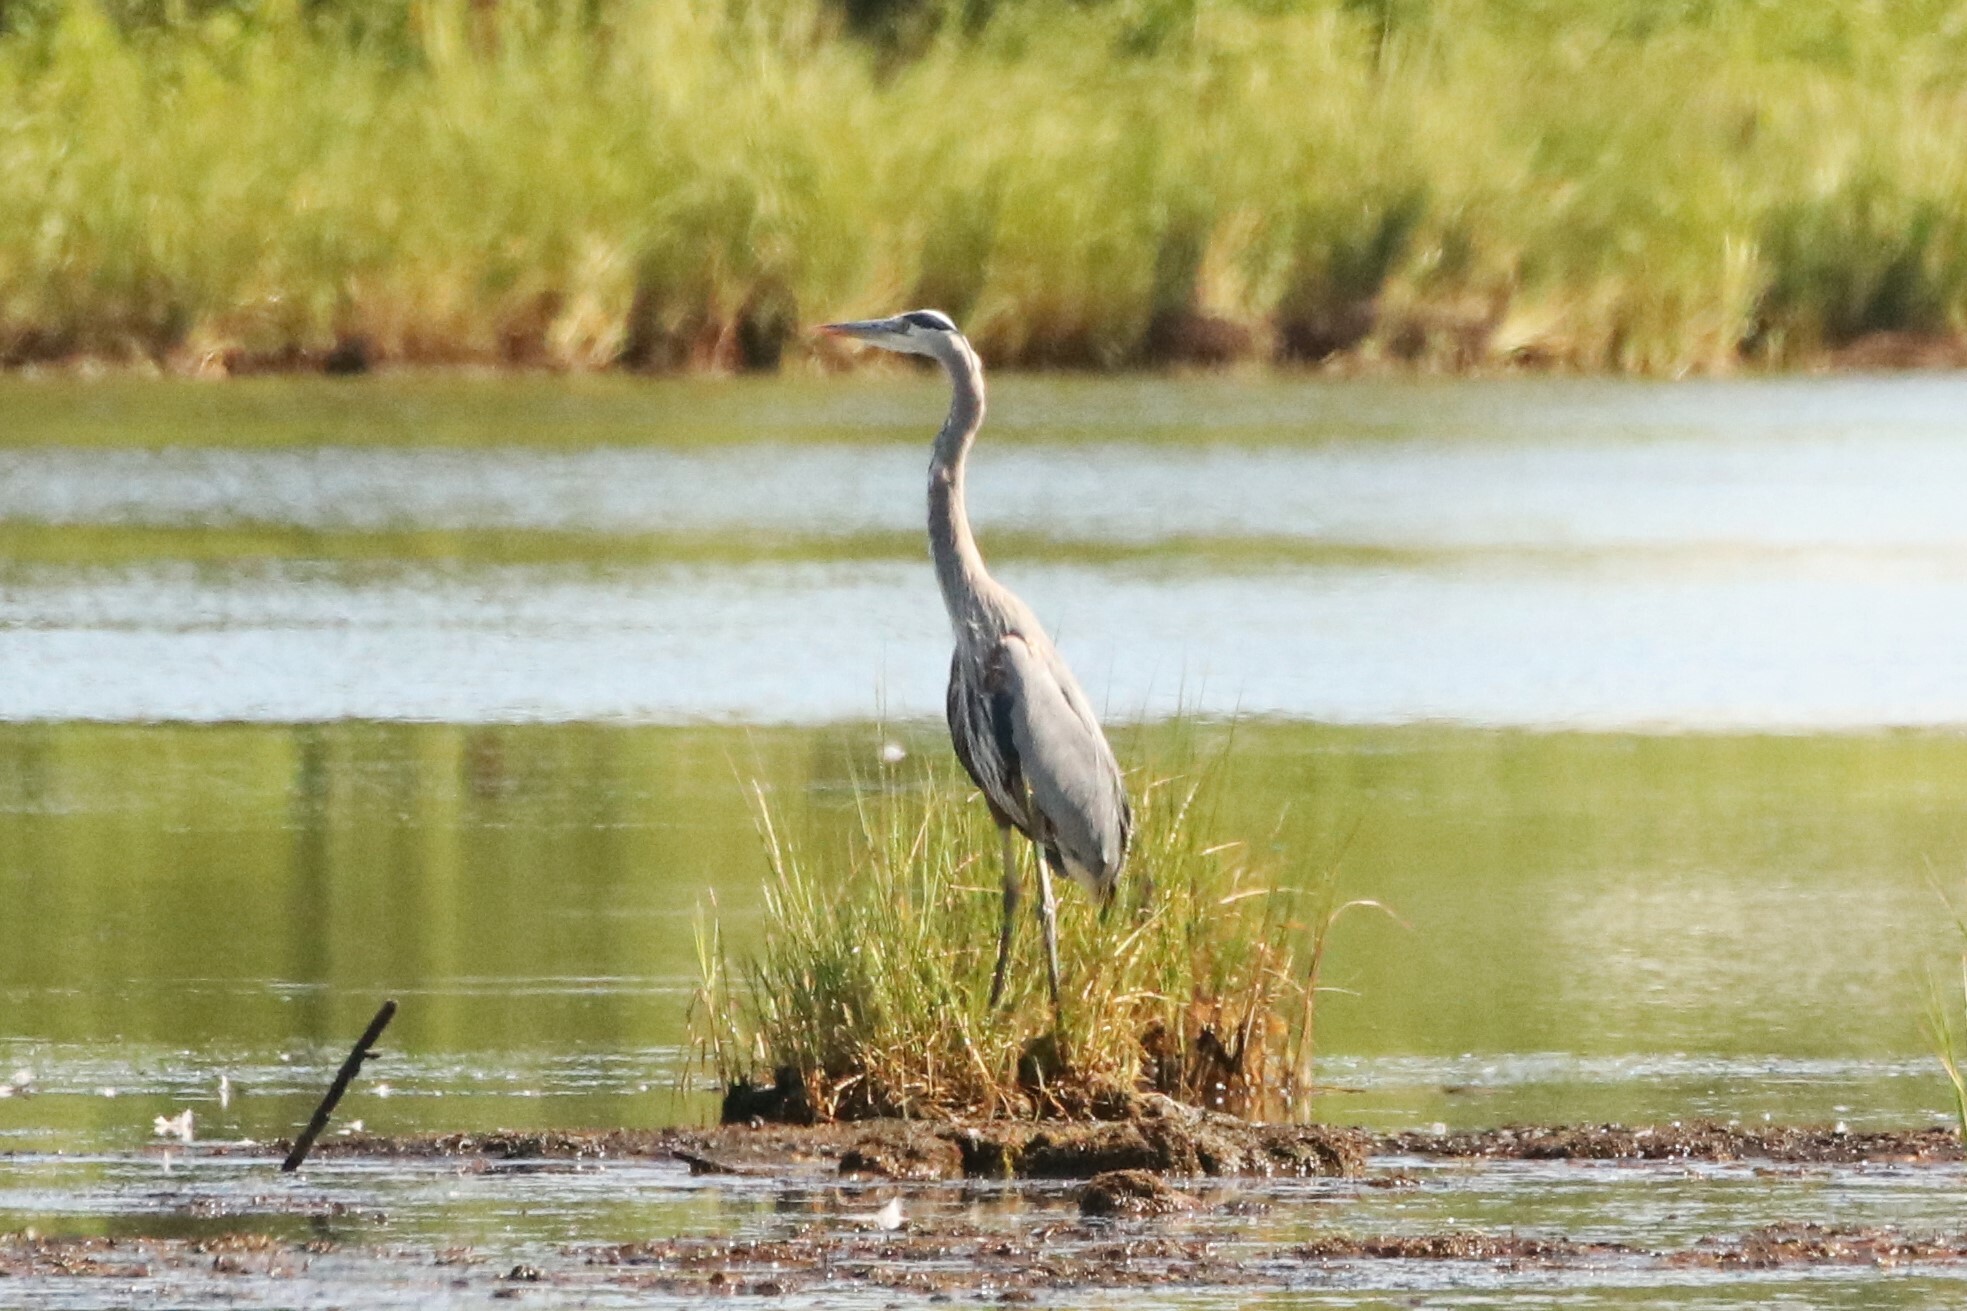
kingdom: Animalia
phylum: Chordata
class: Aves
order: Pelecaniformes
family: Ardeidae
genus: Ardea
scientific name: Ardea herodias
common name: Great blue heron
